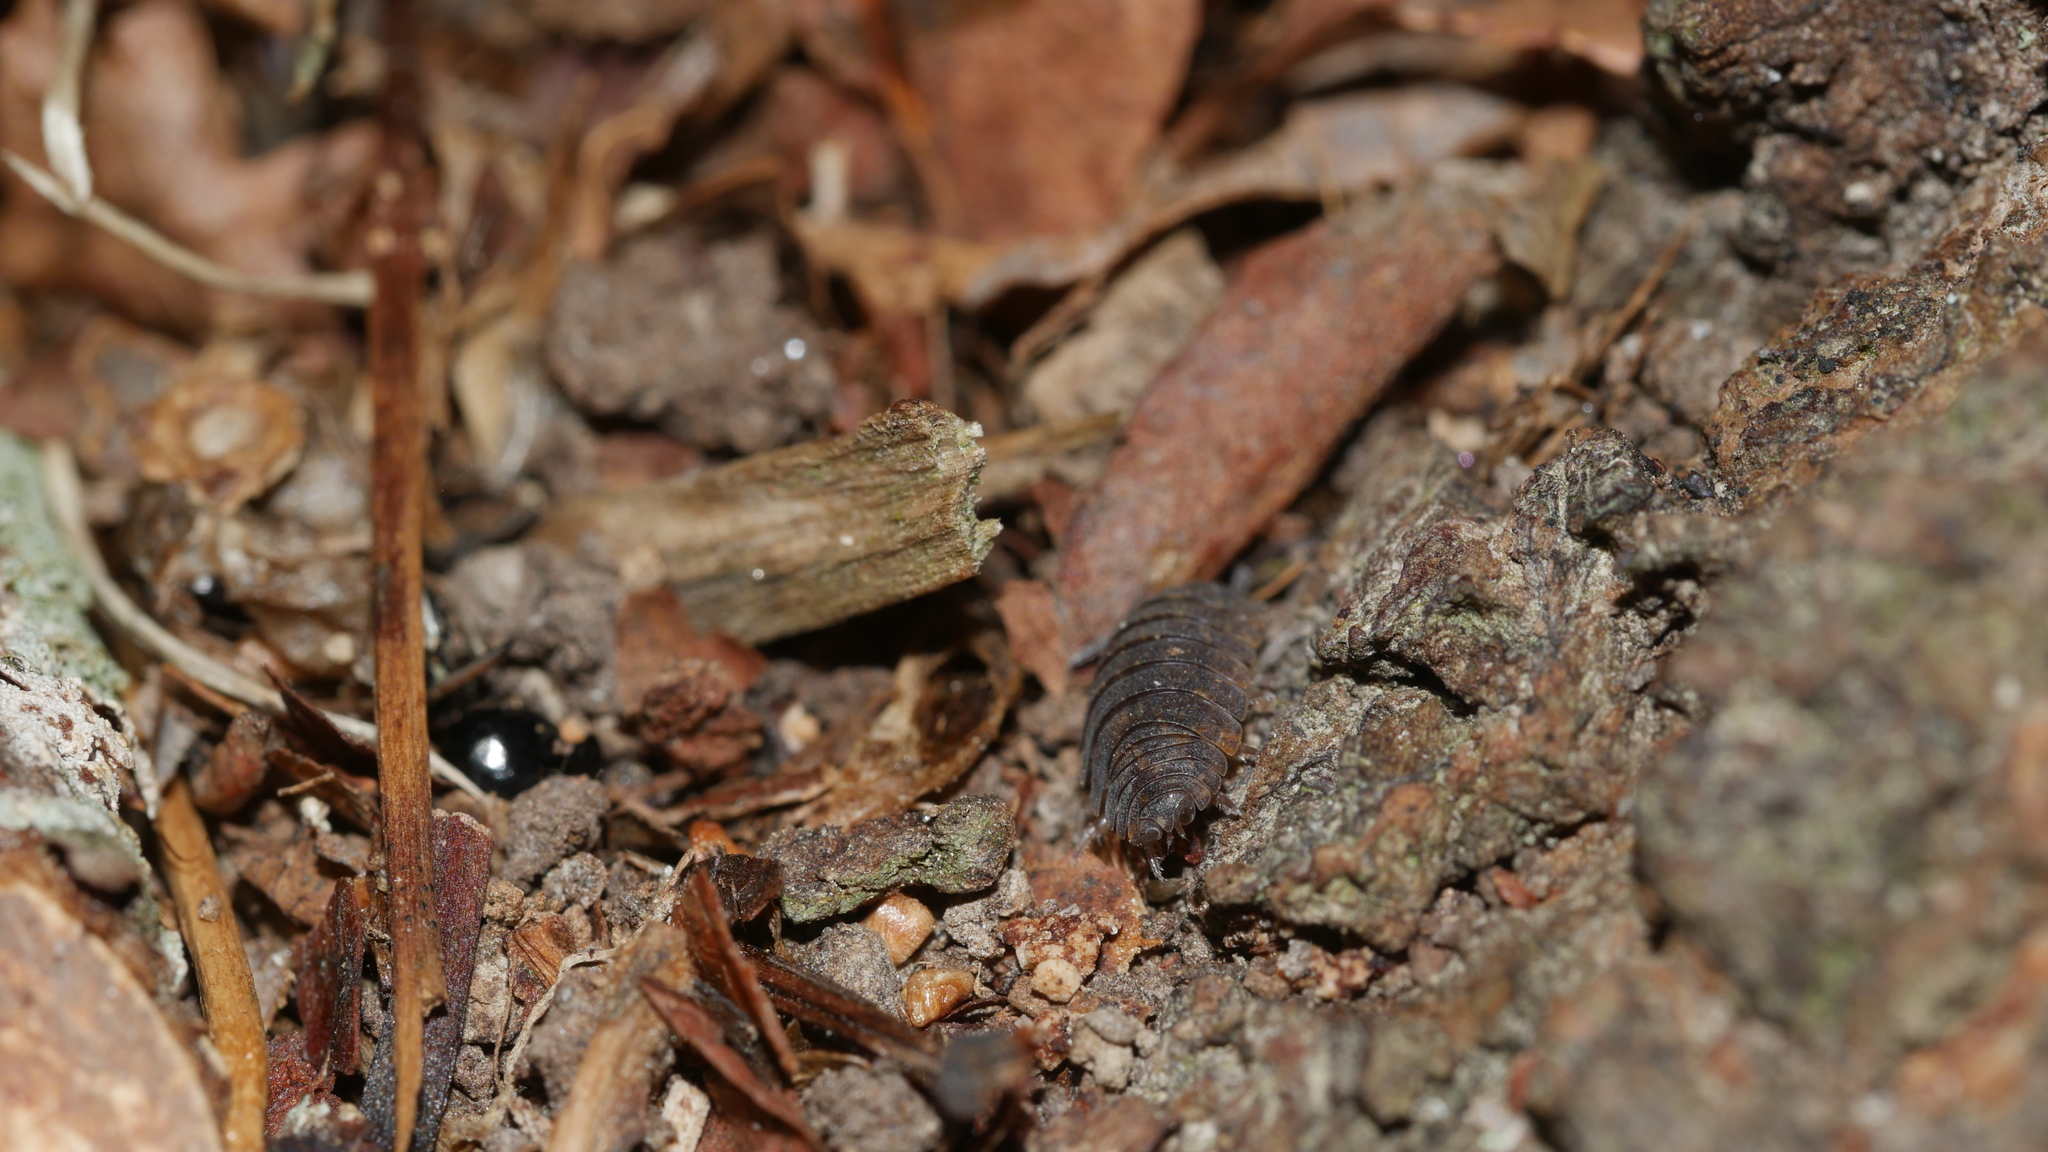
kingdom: Animalia
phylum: Arthropoda
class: Malacostraca
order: Isopoda
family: Porcellionidae
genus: Porcellio
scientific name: Porcellio scaber
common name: Common rough woodlouse
